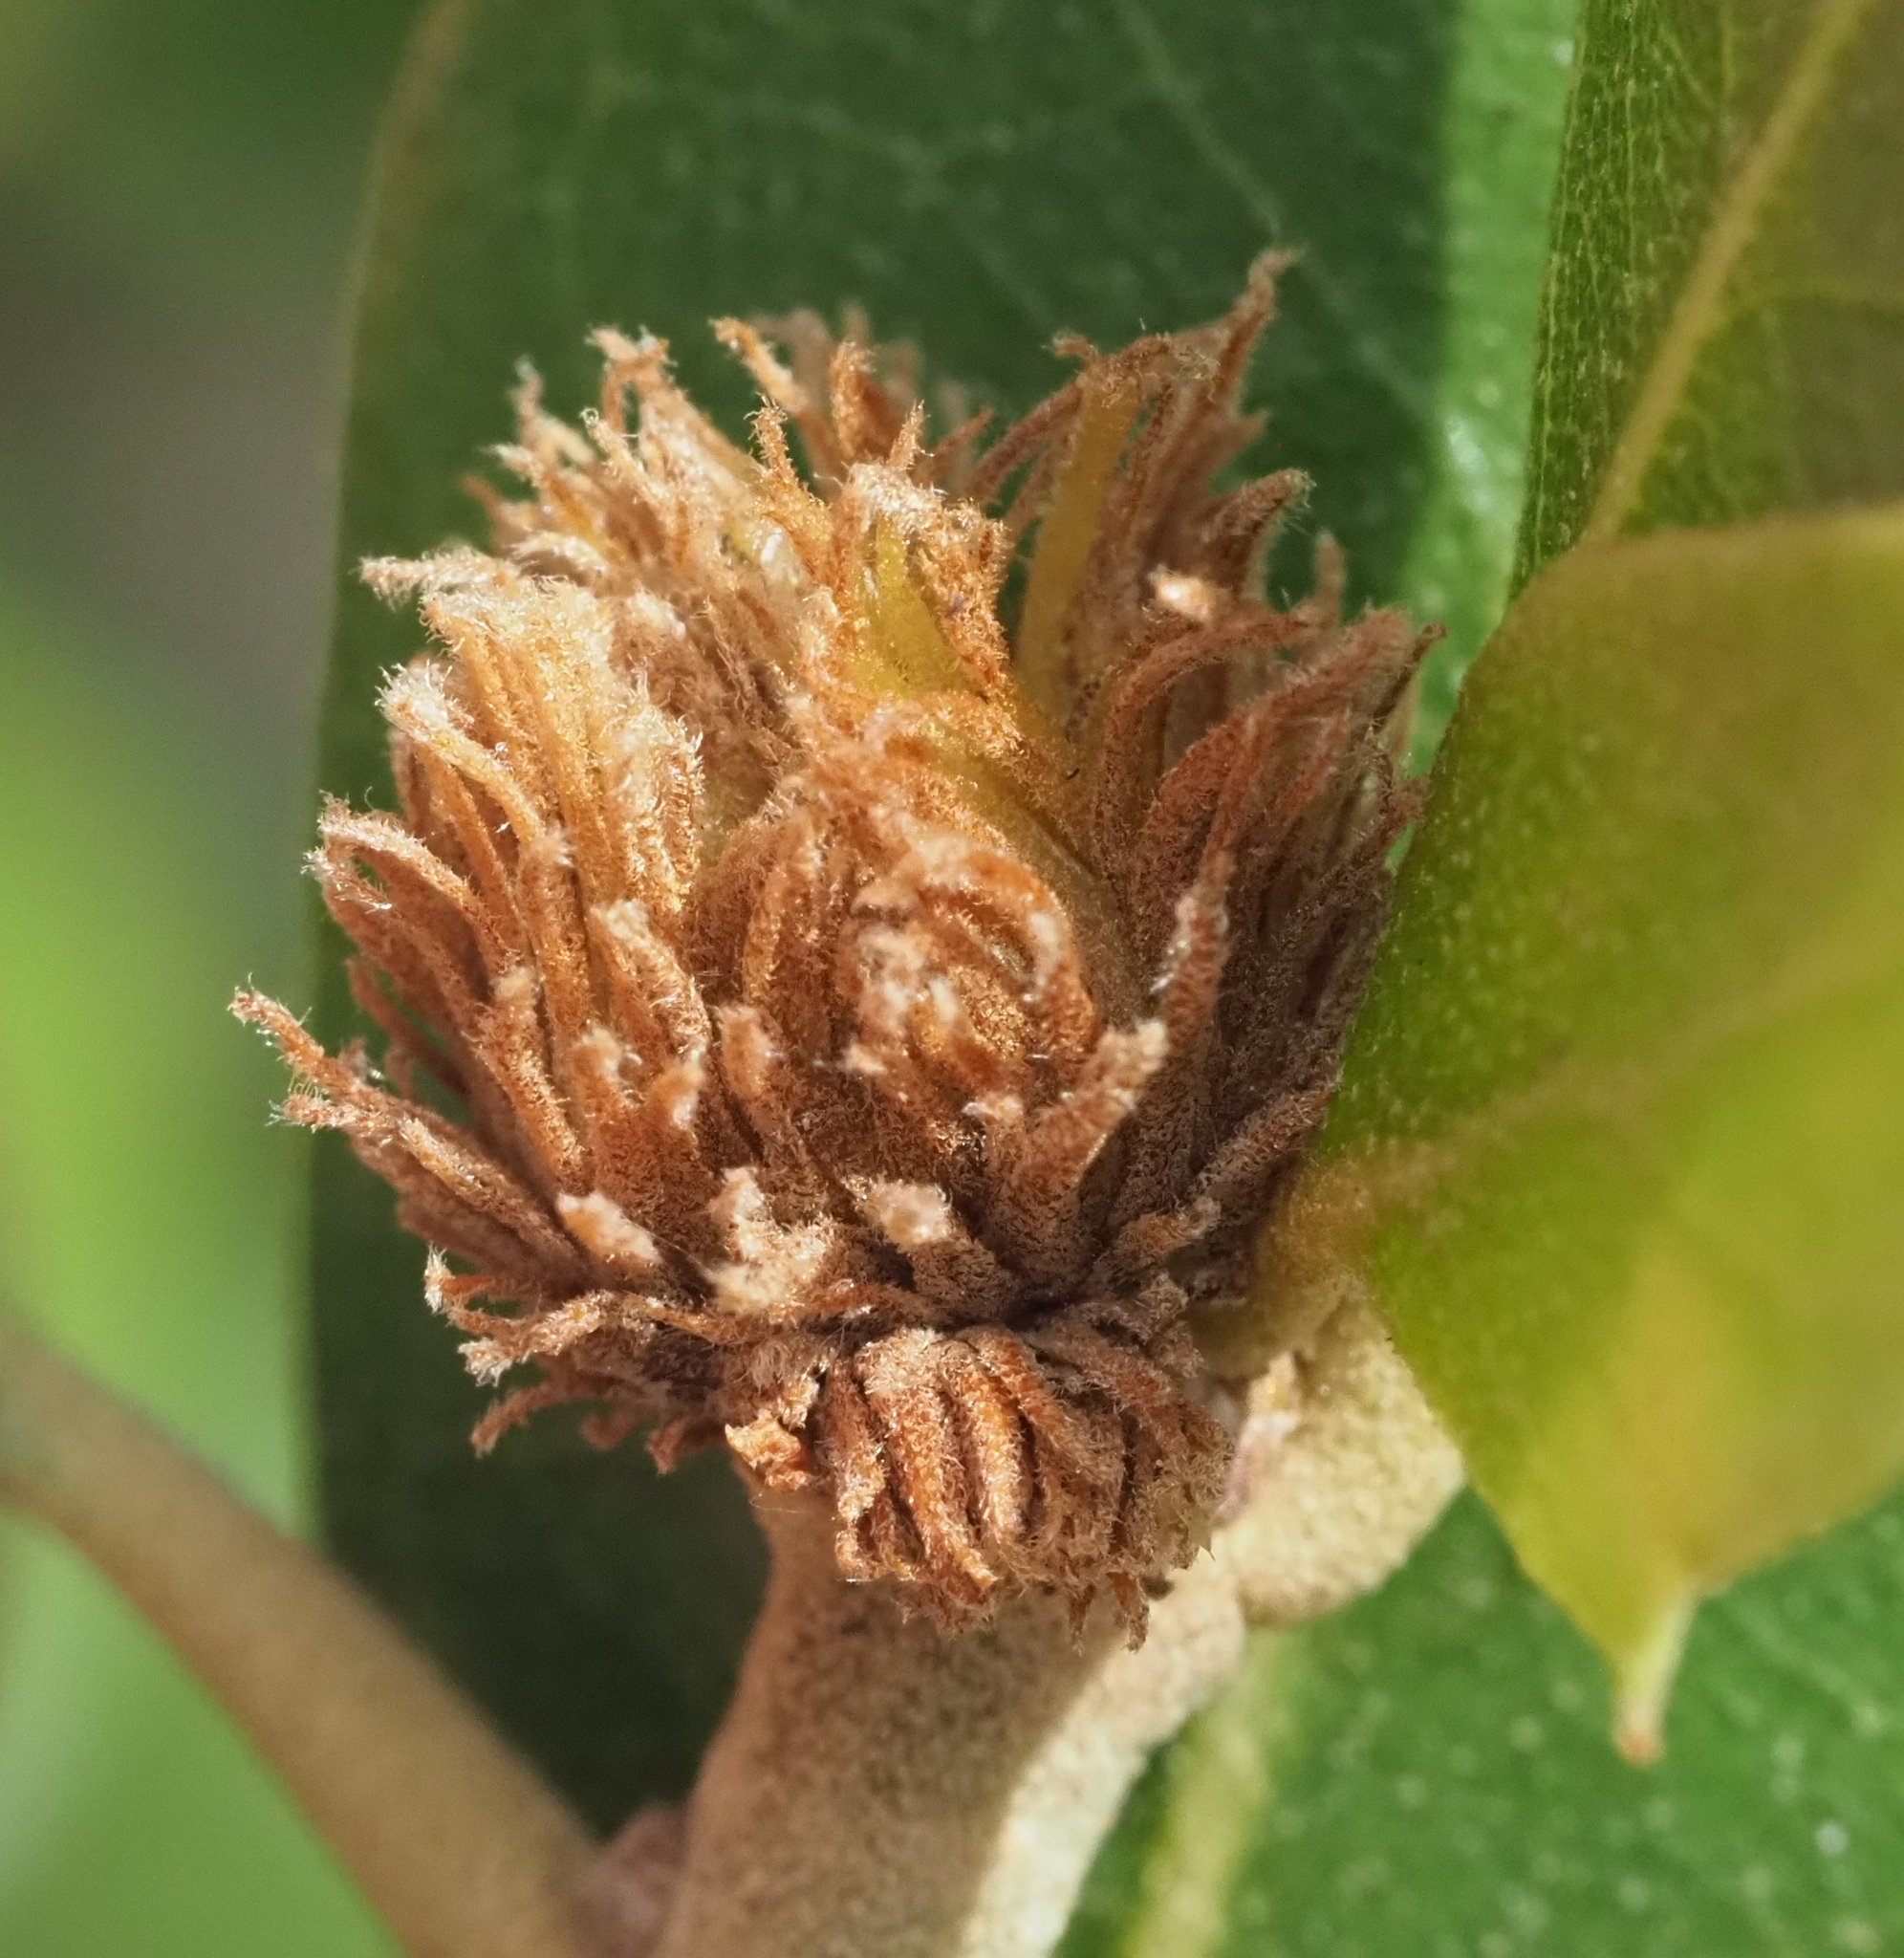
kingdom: Animalia
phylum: Arthropoda
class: Insecta
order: Hymenoptera
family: Cynipidae
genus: Andricus
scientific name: Andricus quercusfoliatus
